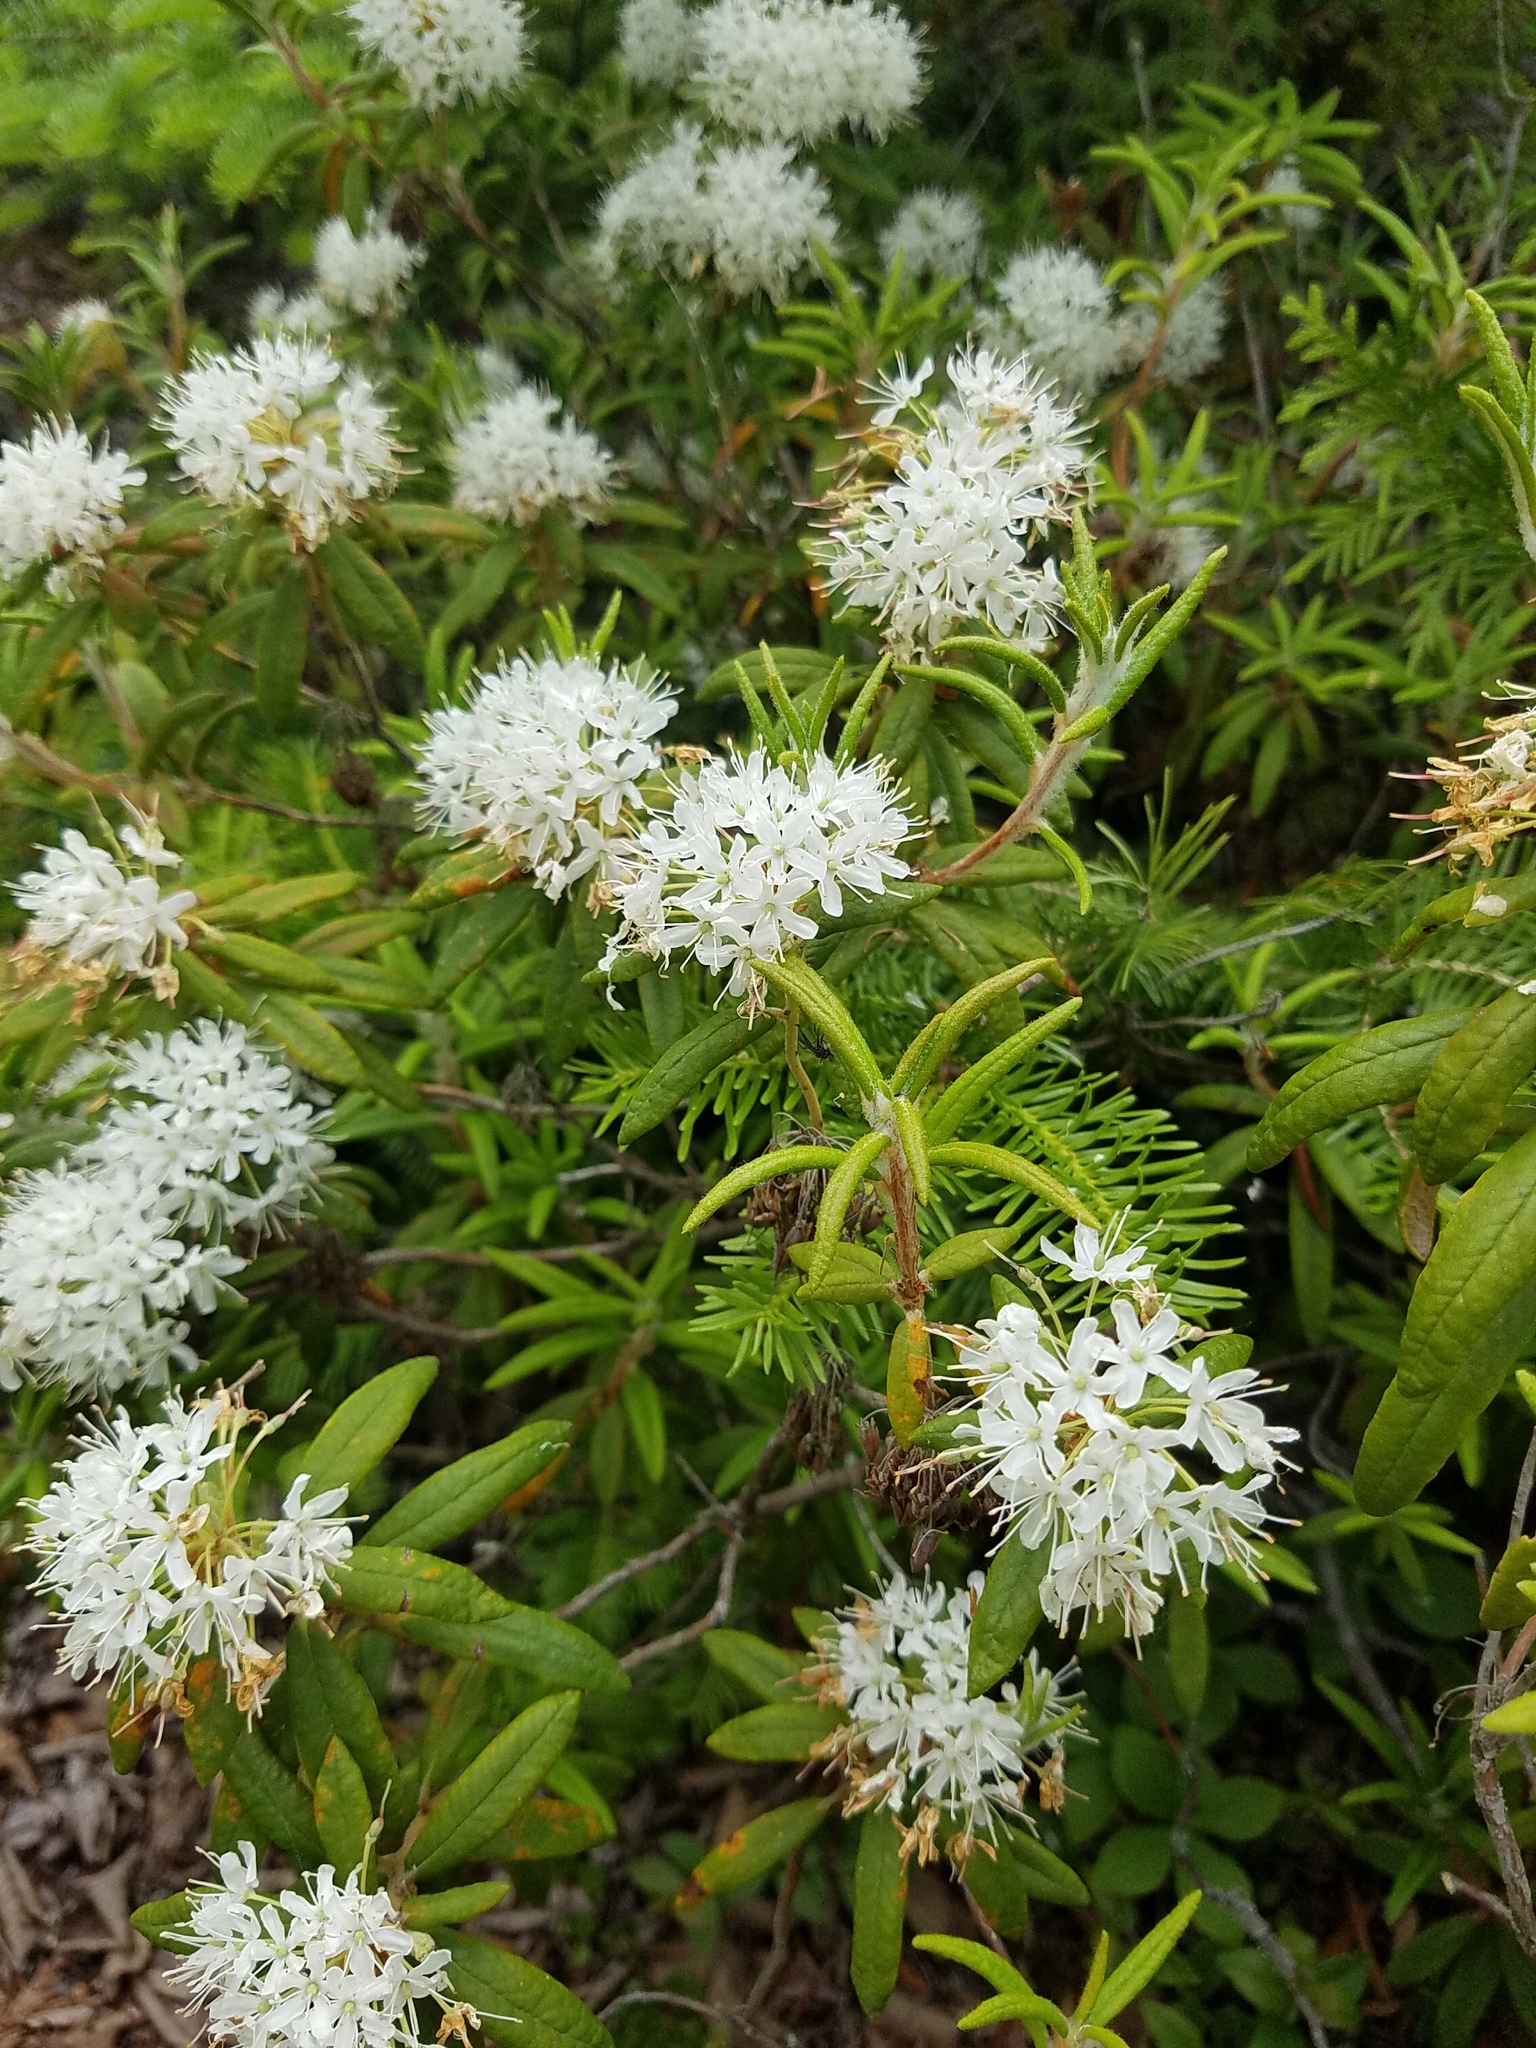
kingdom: Plantae
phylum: Tracheophyta
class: Magnoliopsida
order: Ericales
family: Ericaceae
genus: Rhododendron
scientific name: Rhododendron groenlandicum
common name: Bog labrador tea
